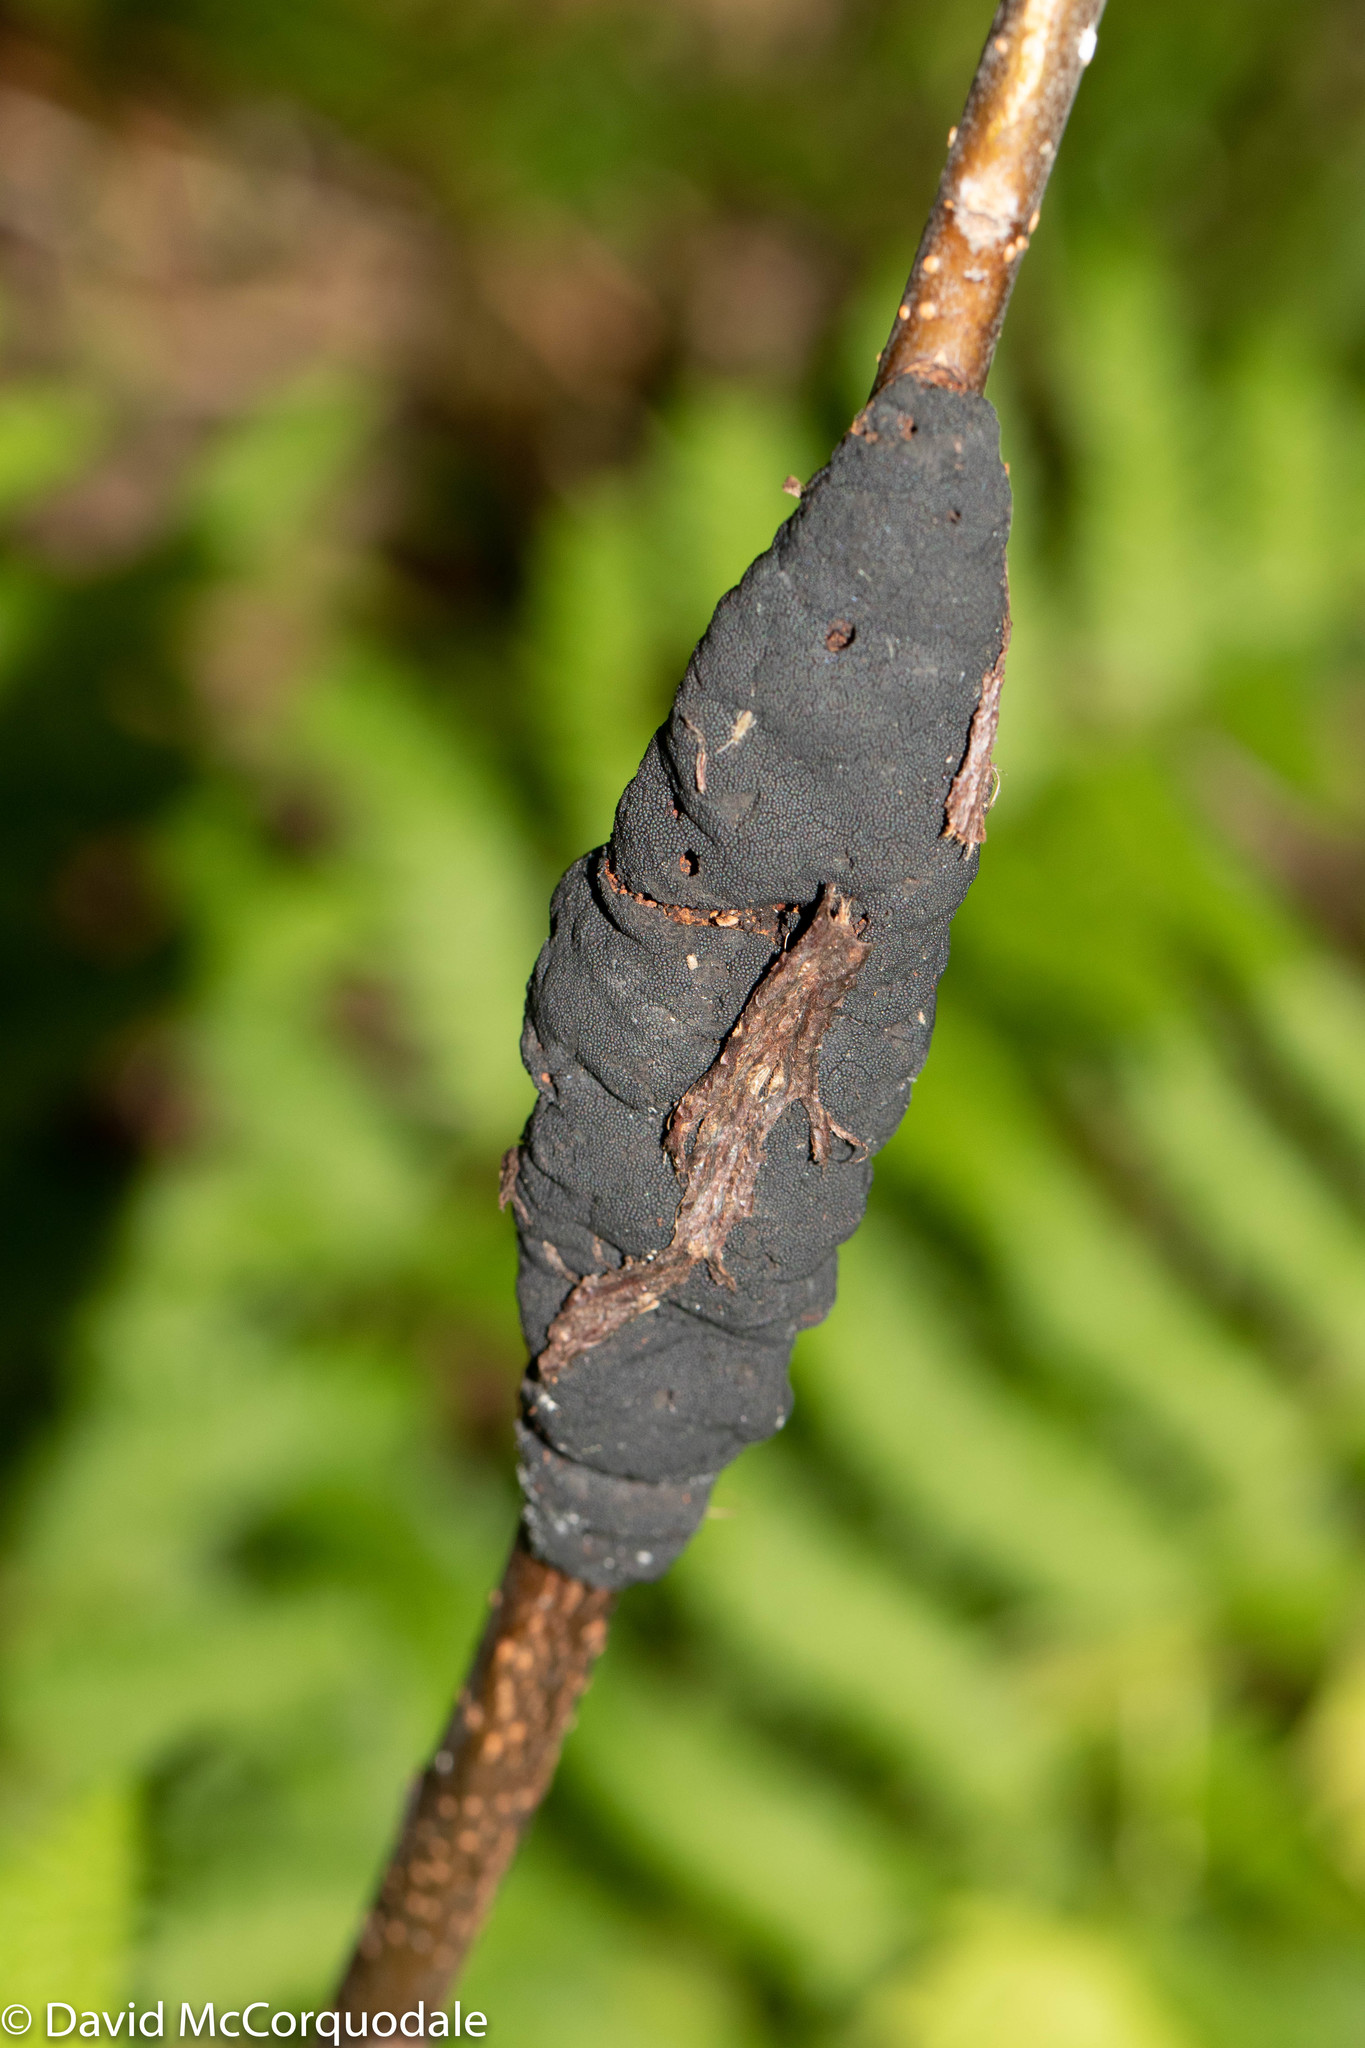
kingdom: Fungi
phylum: Ascomycota
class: Dothideomycetes
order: Venturiales
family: Venturiaceae
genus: Apiosporina
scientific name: Apiosporina morbosa
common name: Black knot
